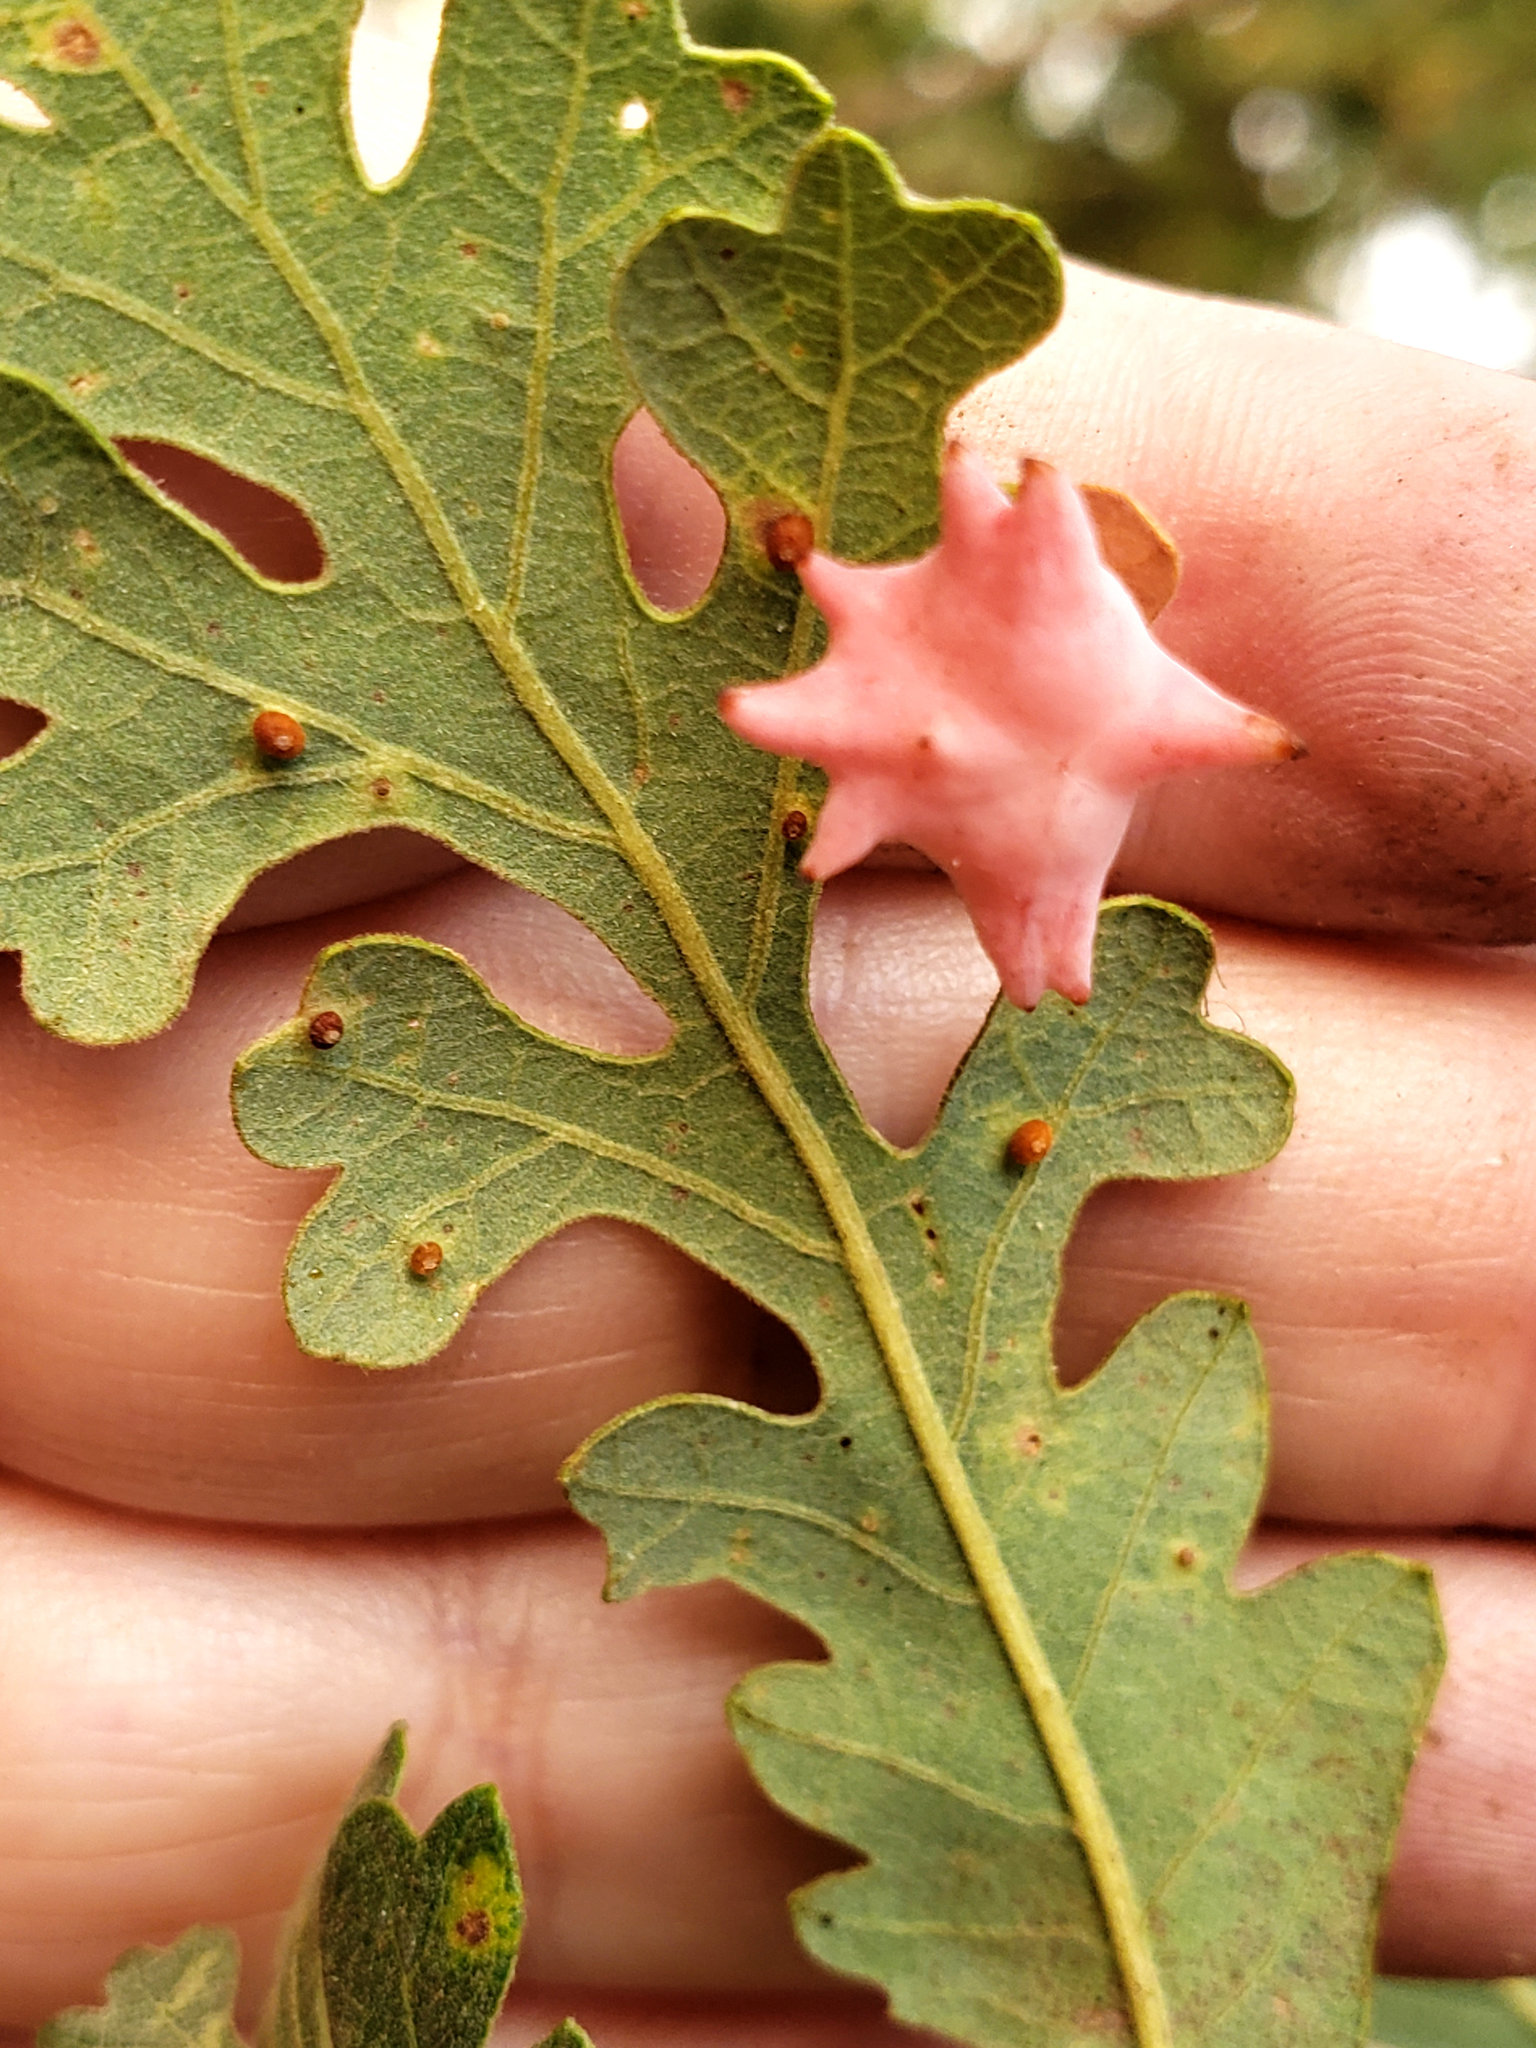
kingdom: Animalia
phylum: Arthropoda
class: Insecta
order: Hymenoptera
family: Cynipidae
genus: Neuroterus
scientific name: Neuroterus saltarius
